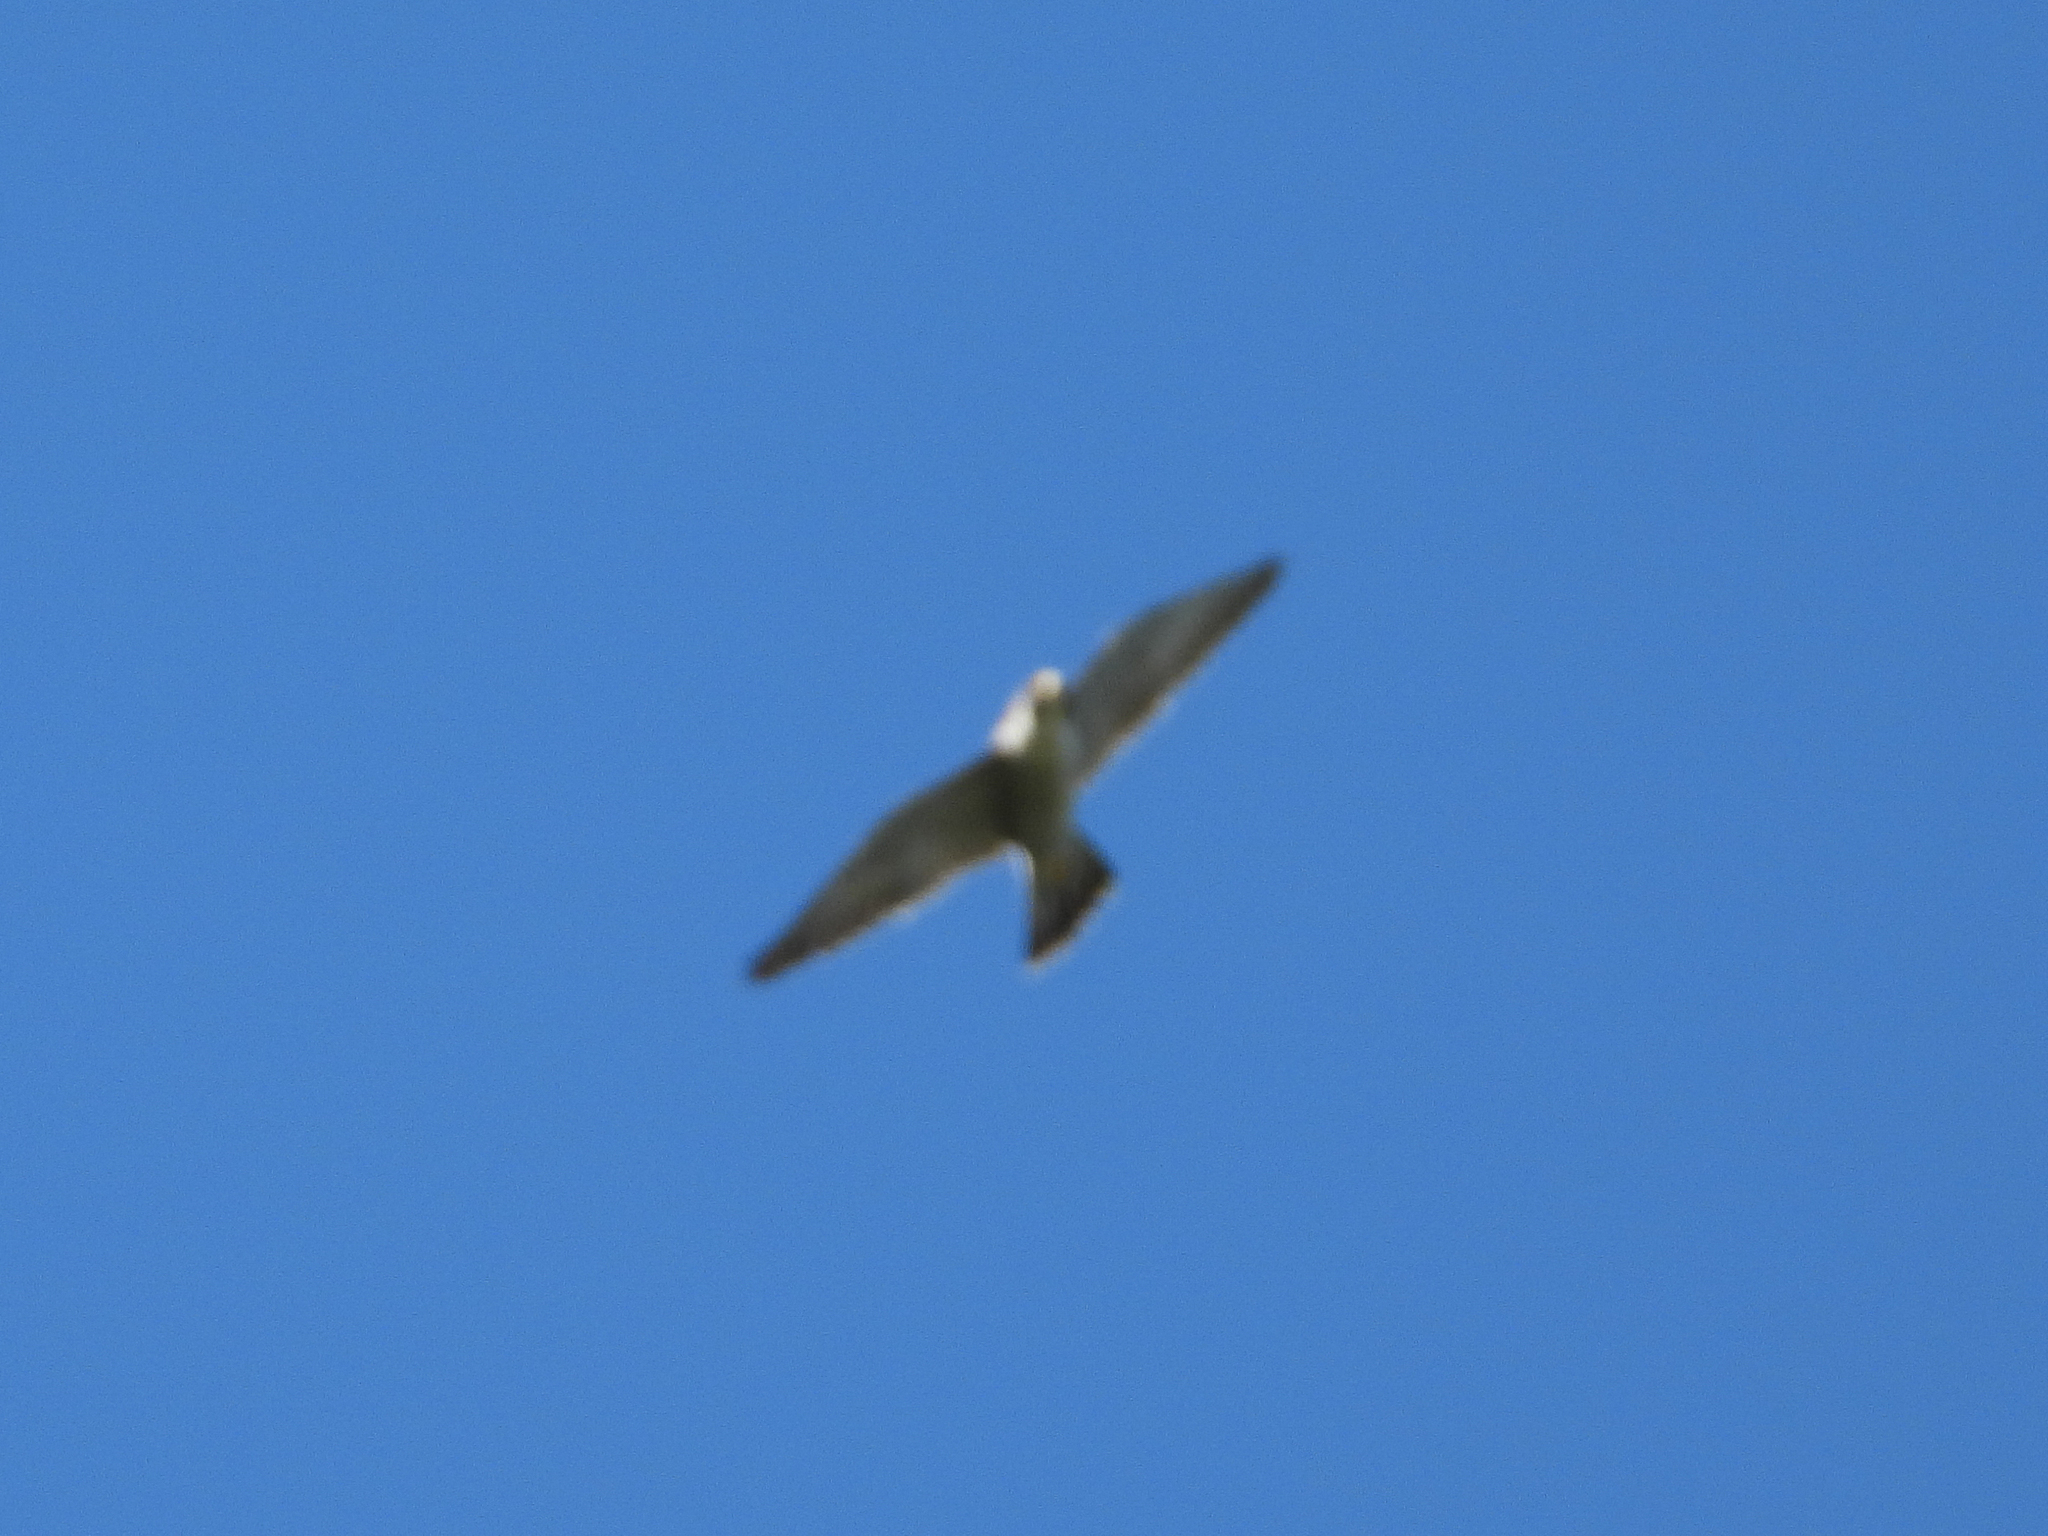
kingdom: Animalia
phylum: Chordata
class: Aves
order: Falconiformes
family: Falconidae
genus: Falco
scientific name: Falco peregrinus
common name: Peregrine falcon
